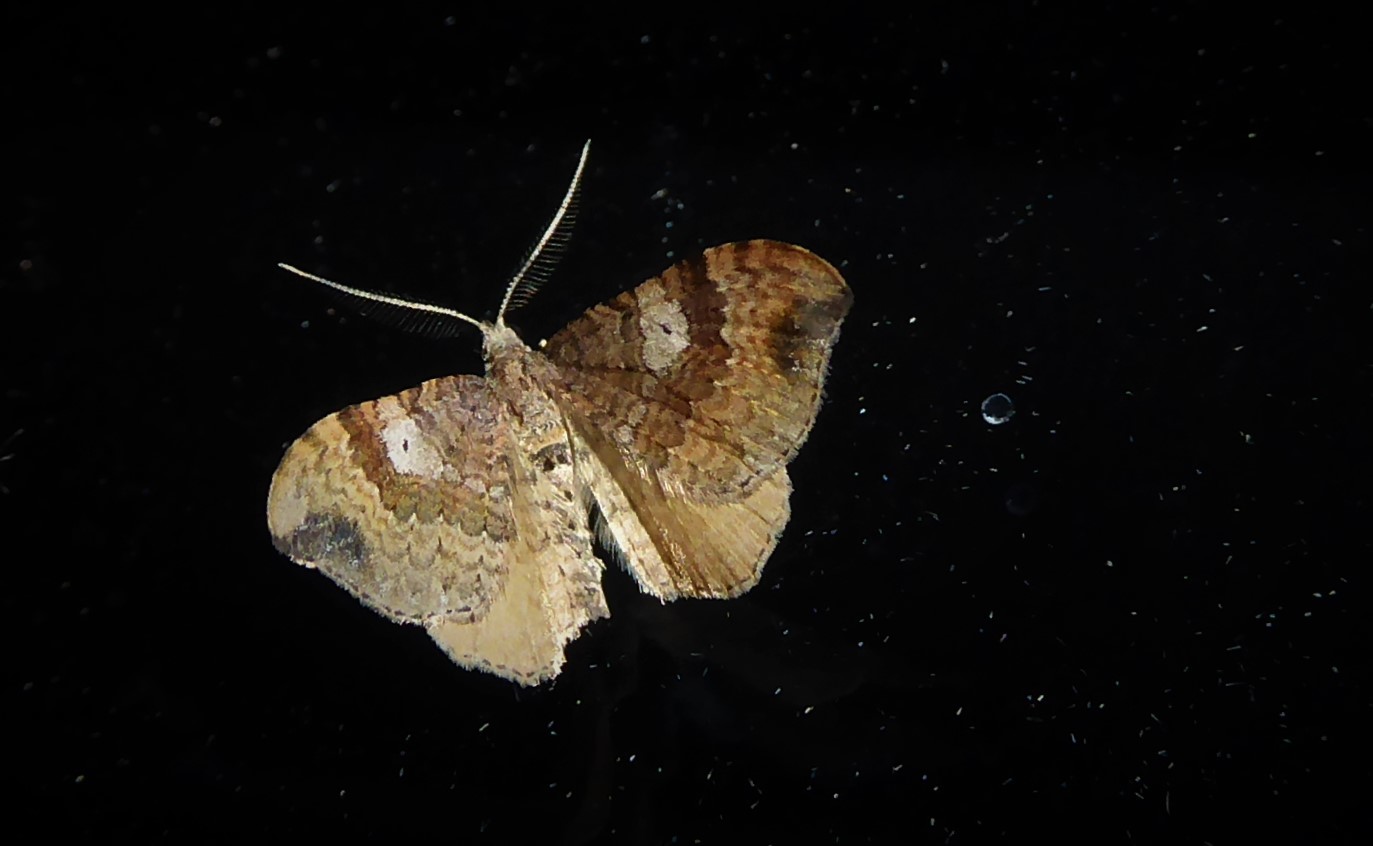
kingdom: Animalia
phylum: Arthropoda
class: Insecta
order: Lepidoptera
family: Geometridae
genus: Homodotis
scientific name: Homodotis megaspilata
